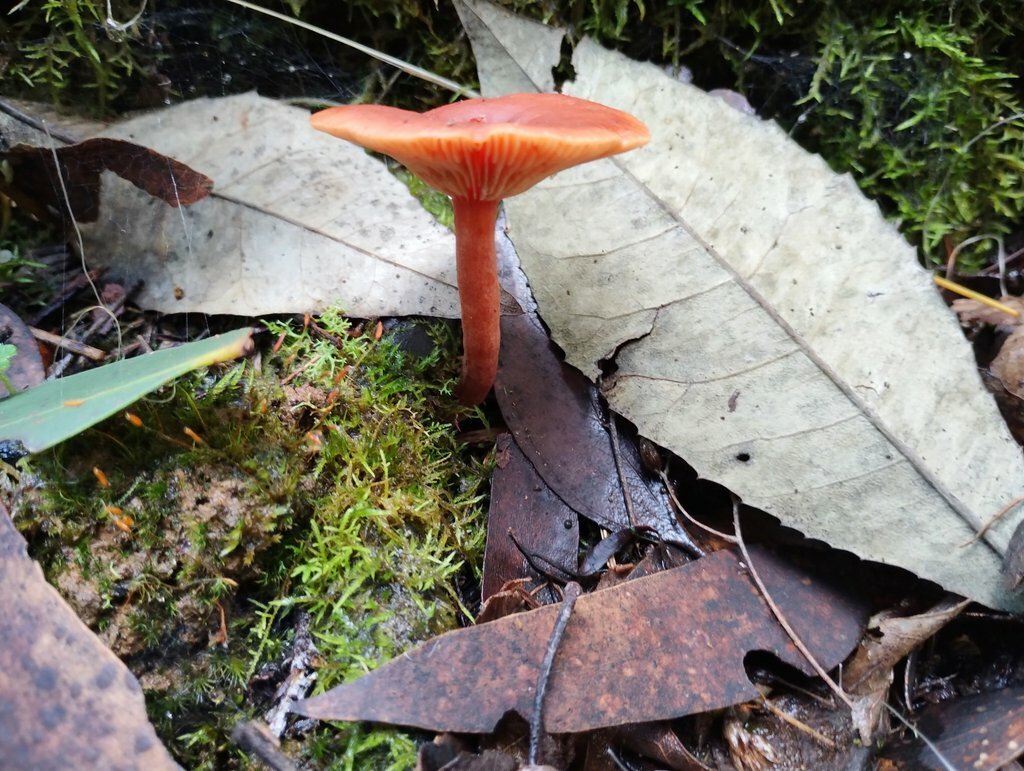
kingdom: Fungi
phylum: Basidiomycota
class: Agaricomycetes
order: Russulales
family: Russulaceae
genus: Lactarius
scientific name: Lactarius eucalypti
